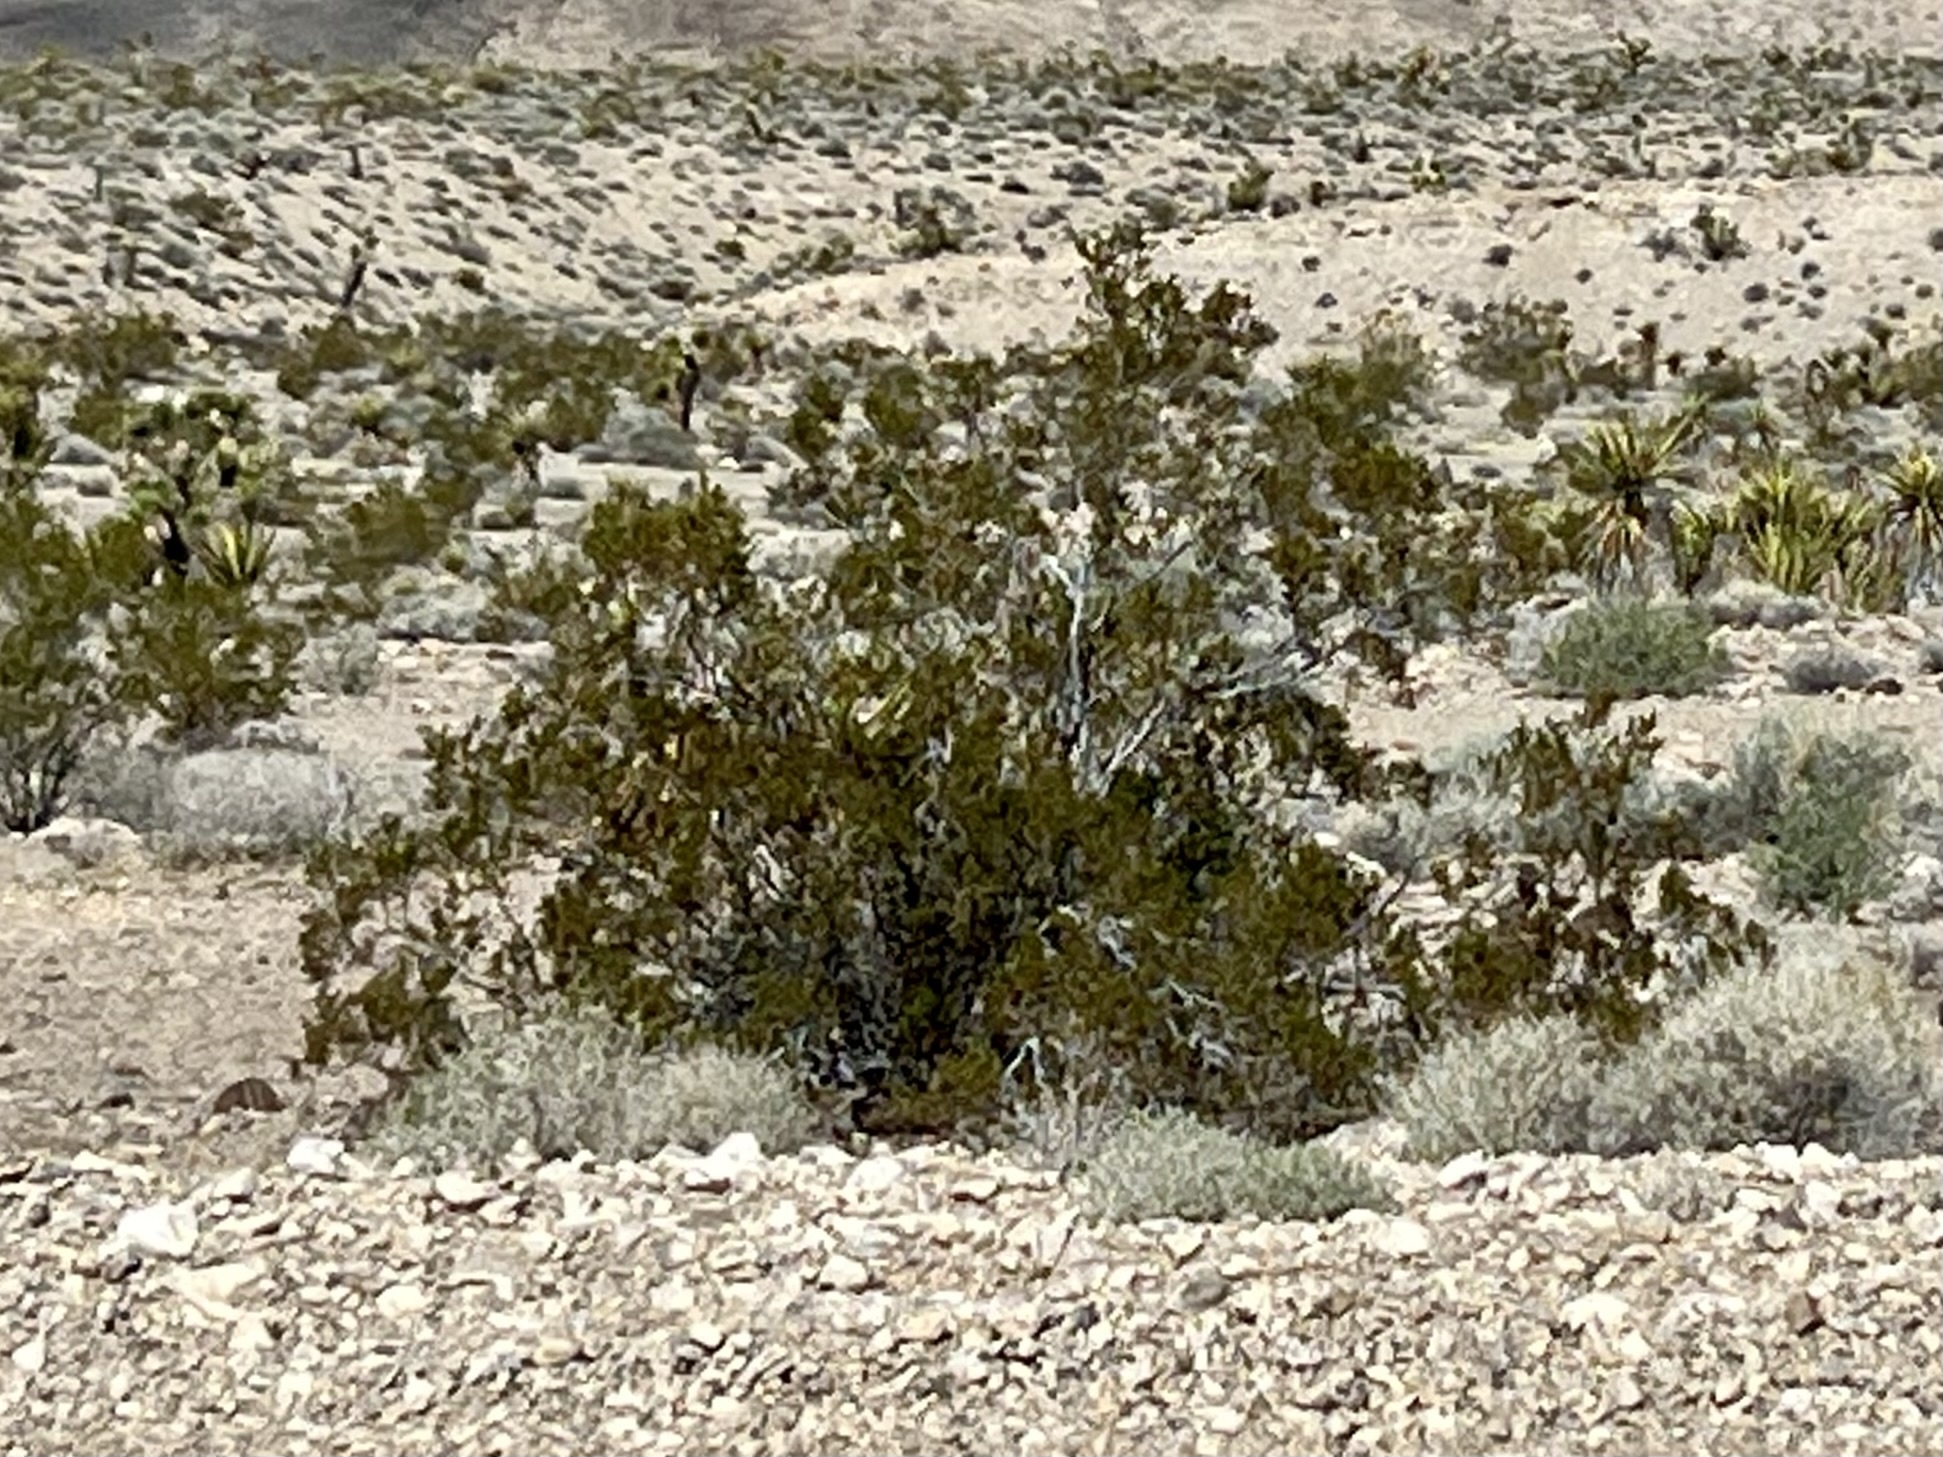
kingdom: Plantae
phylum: Tracheophyta
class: Magnoliopsida
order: Zygophyllales
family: Zygophyllaceae
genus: Larrea
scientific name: Larrea tridentata
